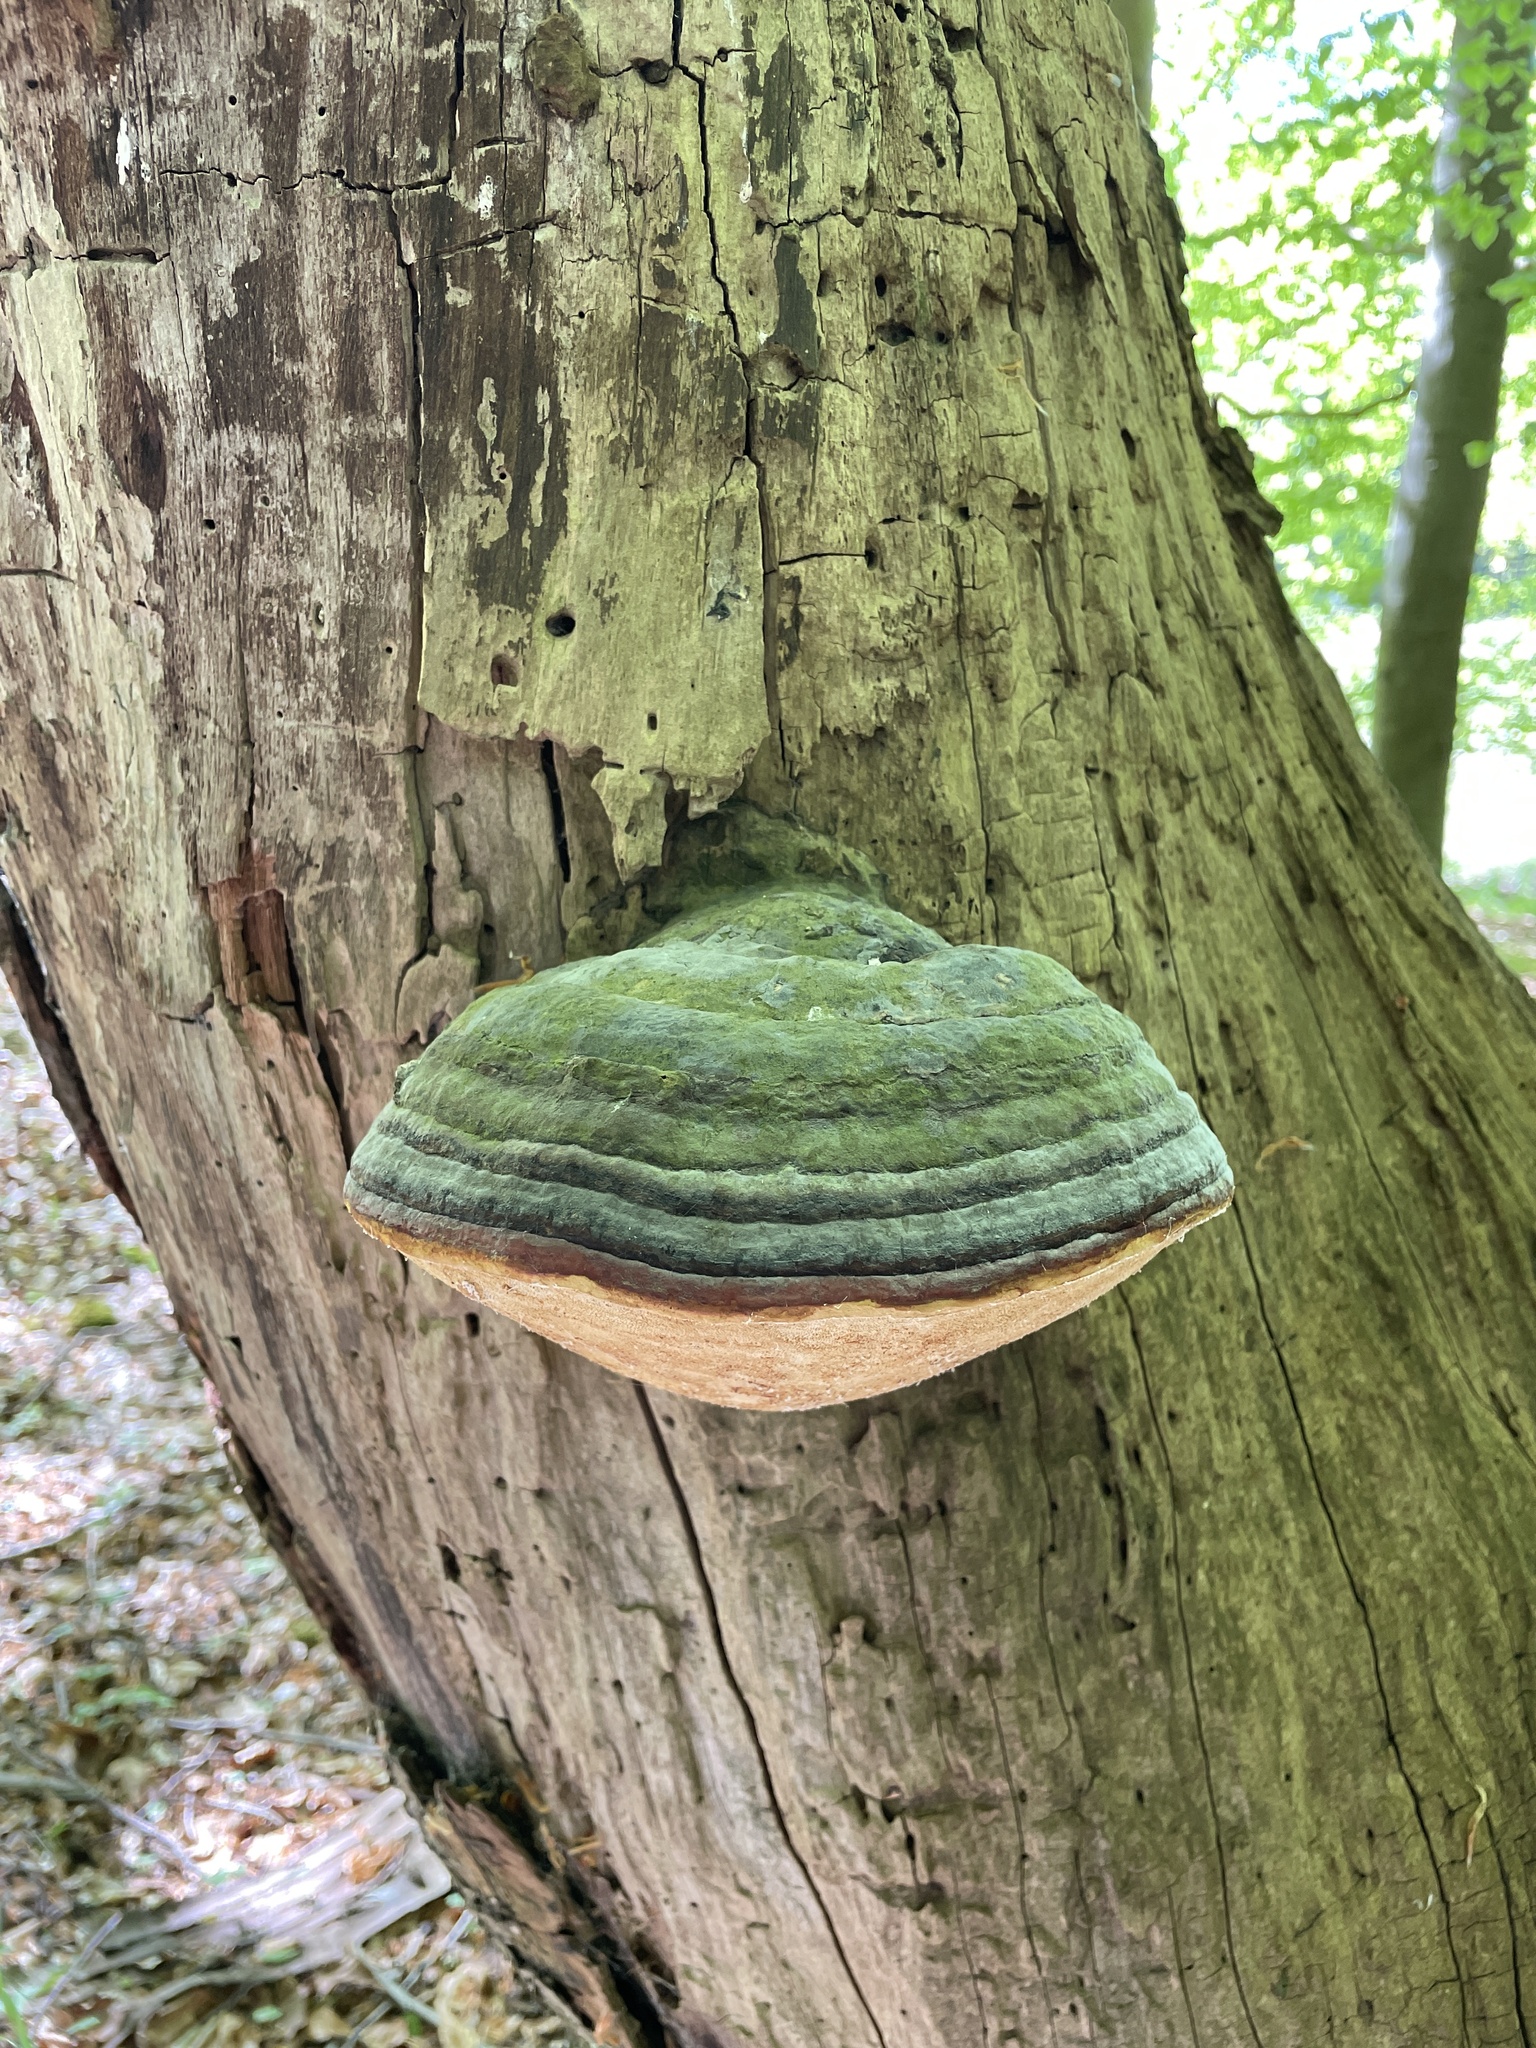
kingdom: Fungi
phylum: Basidiomycota
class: Agaricomycetes
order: Polyporales
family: Fomitopsidaceae
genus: Fomitopsis
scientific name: Fomitopsis pinicola
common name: Red-belted bracket
